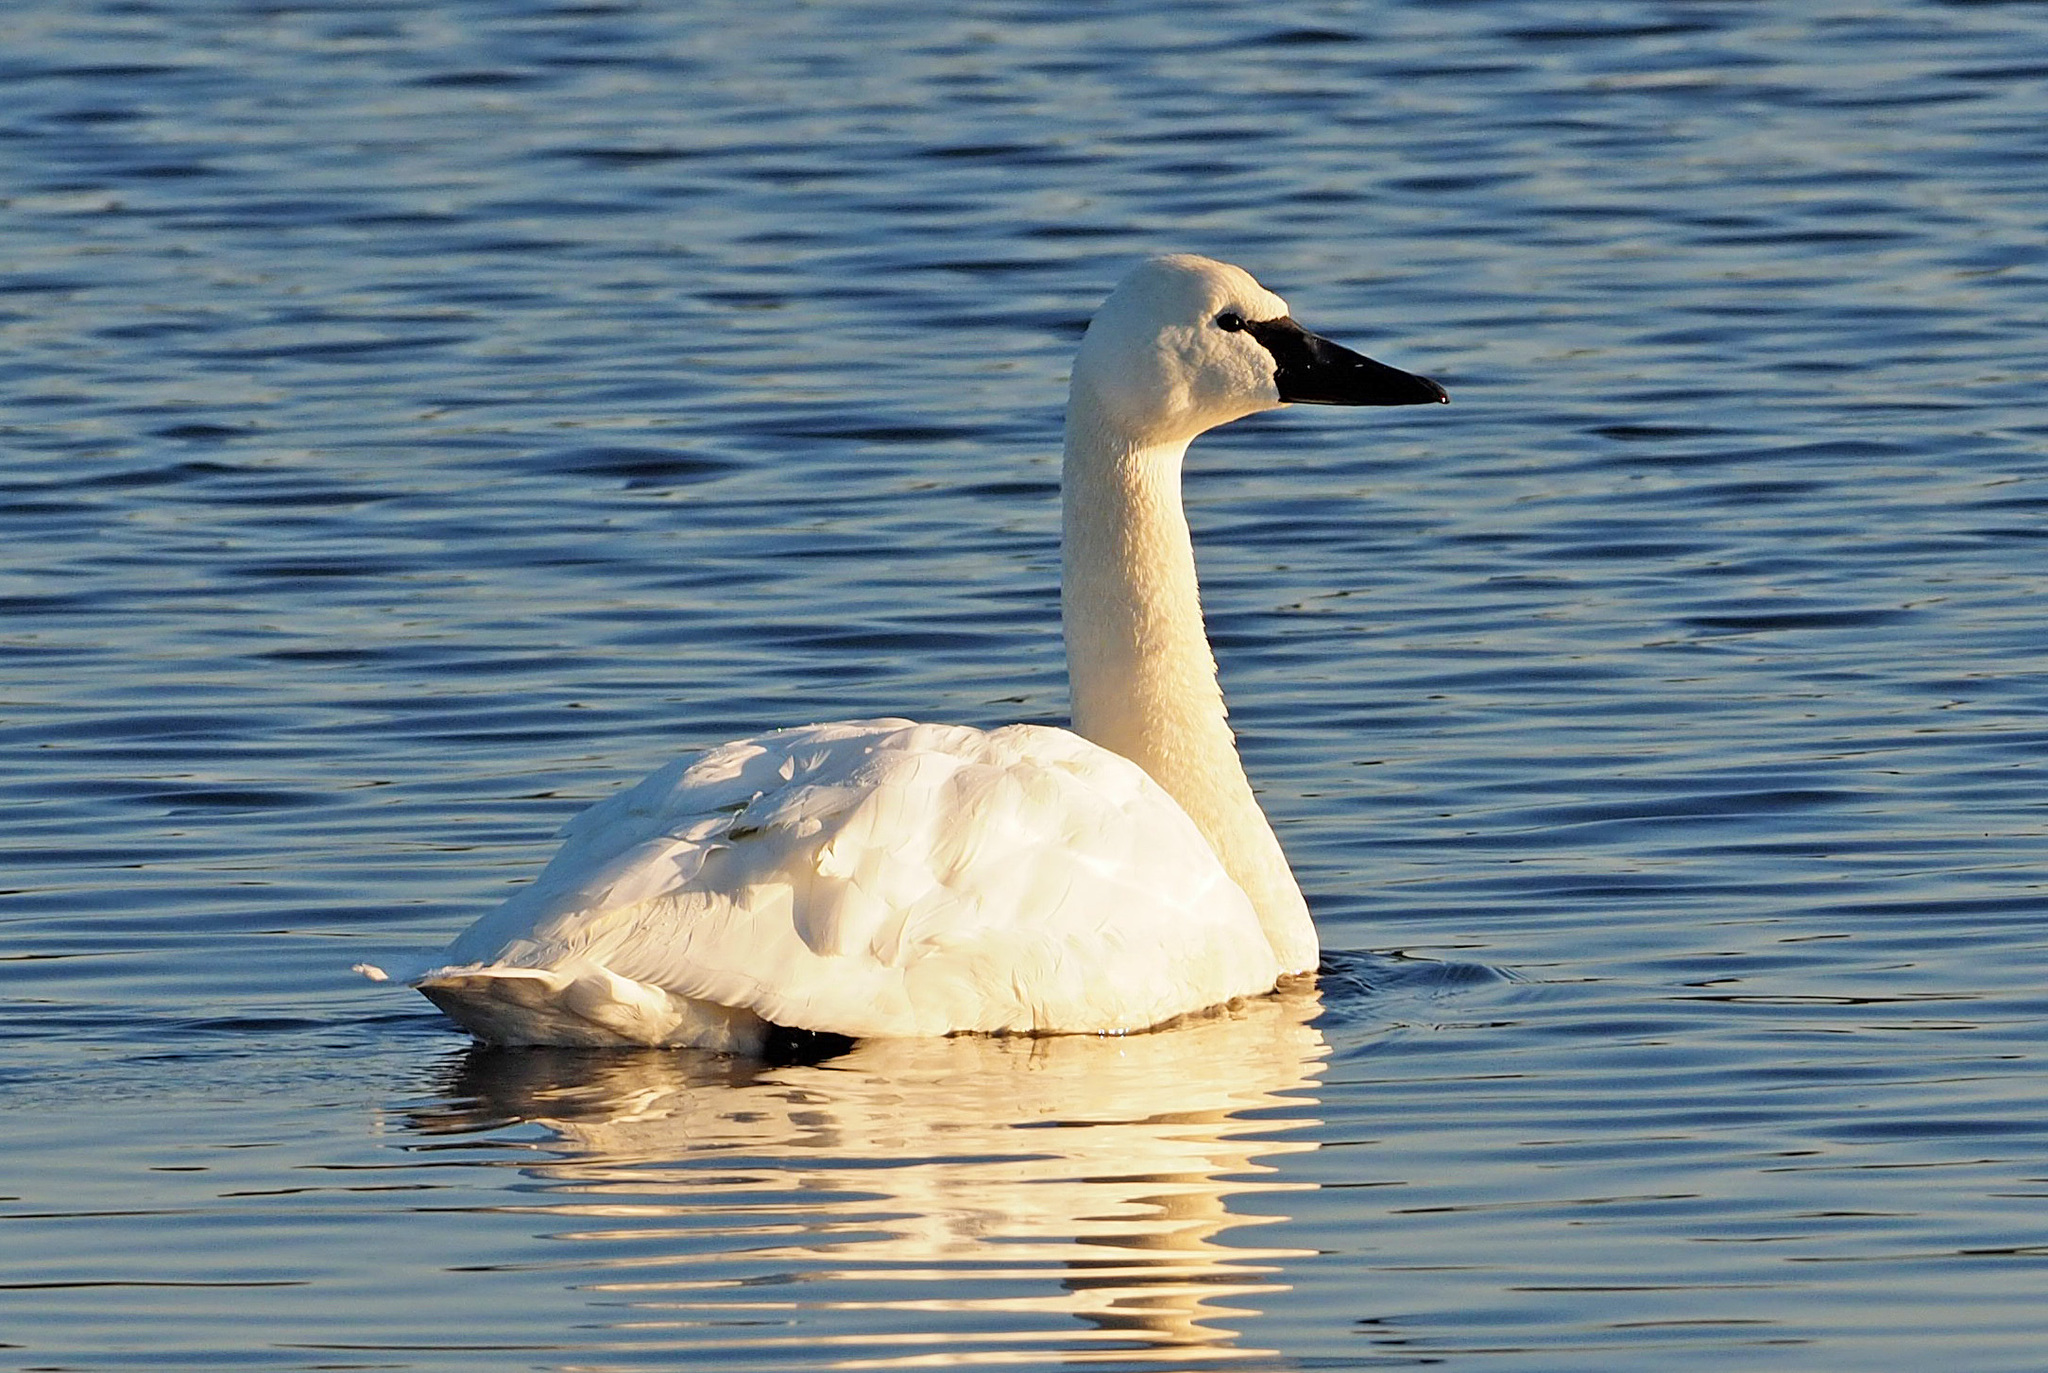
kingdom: Animalia
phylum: Chordata
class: Aves
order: Anseriformes
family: Anatidae
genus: Cygnus
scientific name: Cygnus columbianus
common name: Tundra swan
